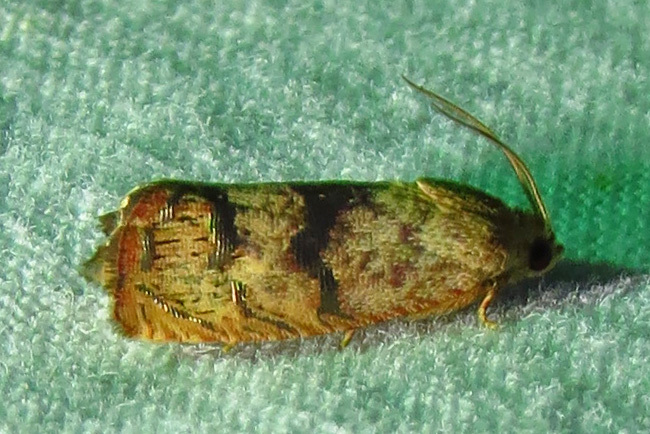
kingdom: Animalia
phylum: Arthropoda
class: Insecta
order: Lepidoptera
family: Tortricidae
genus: Cydia
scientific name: Cydia latiferreana
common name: Filbertworm moth
